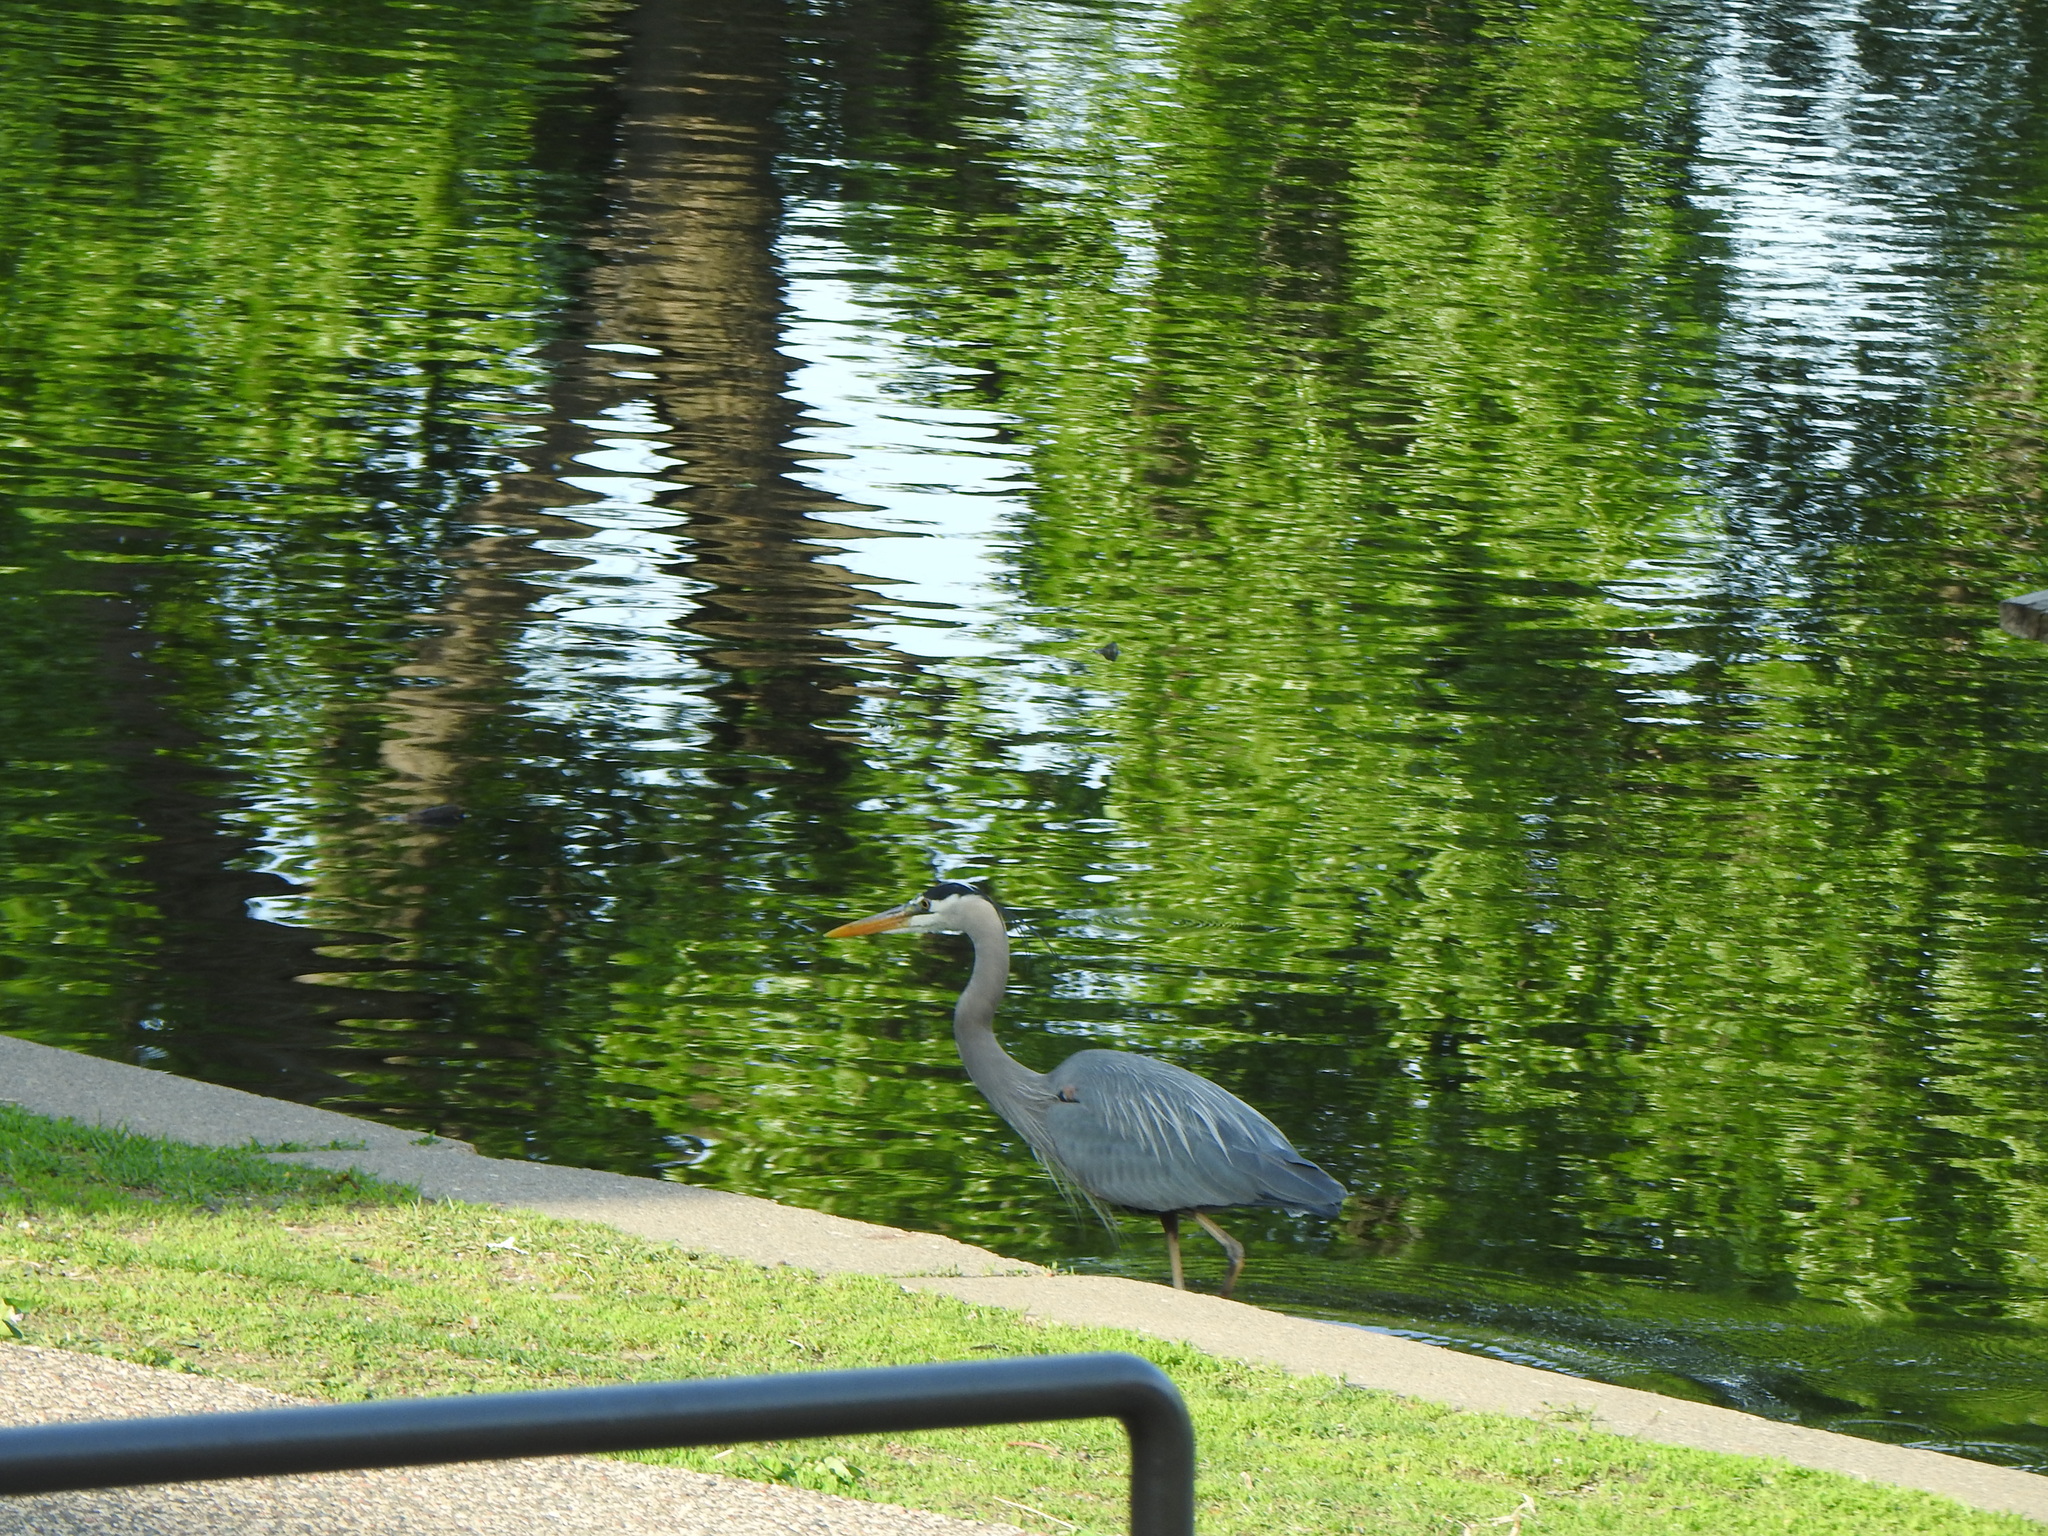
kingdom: Animalia
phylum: Chordata
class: Aves
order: Pelecaniformes
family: Ardeidae
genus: Ardea
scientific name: Ardea herodias
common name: Great blue heron
